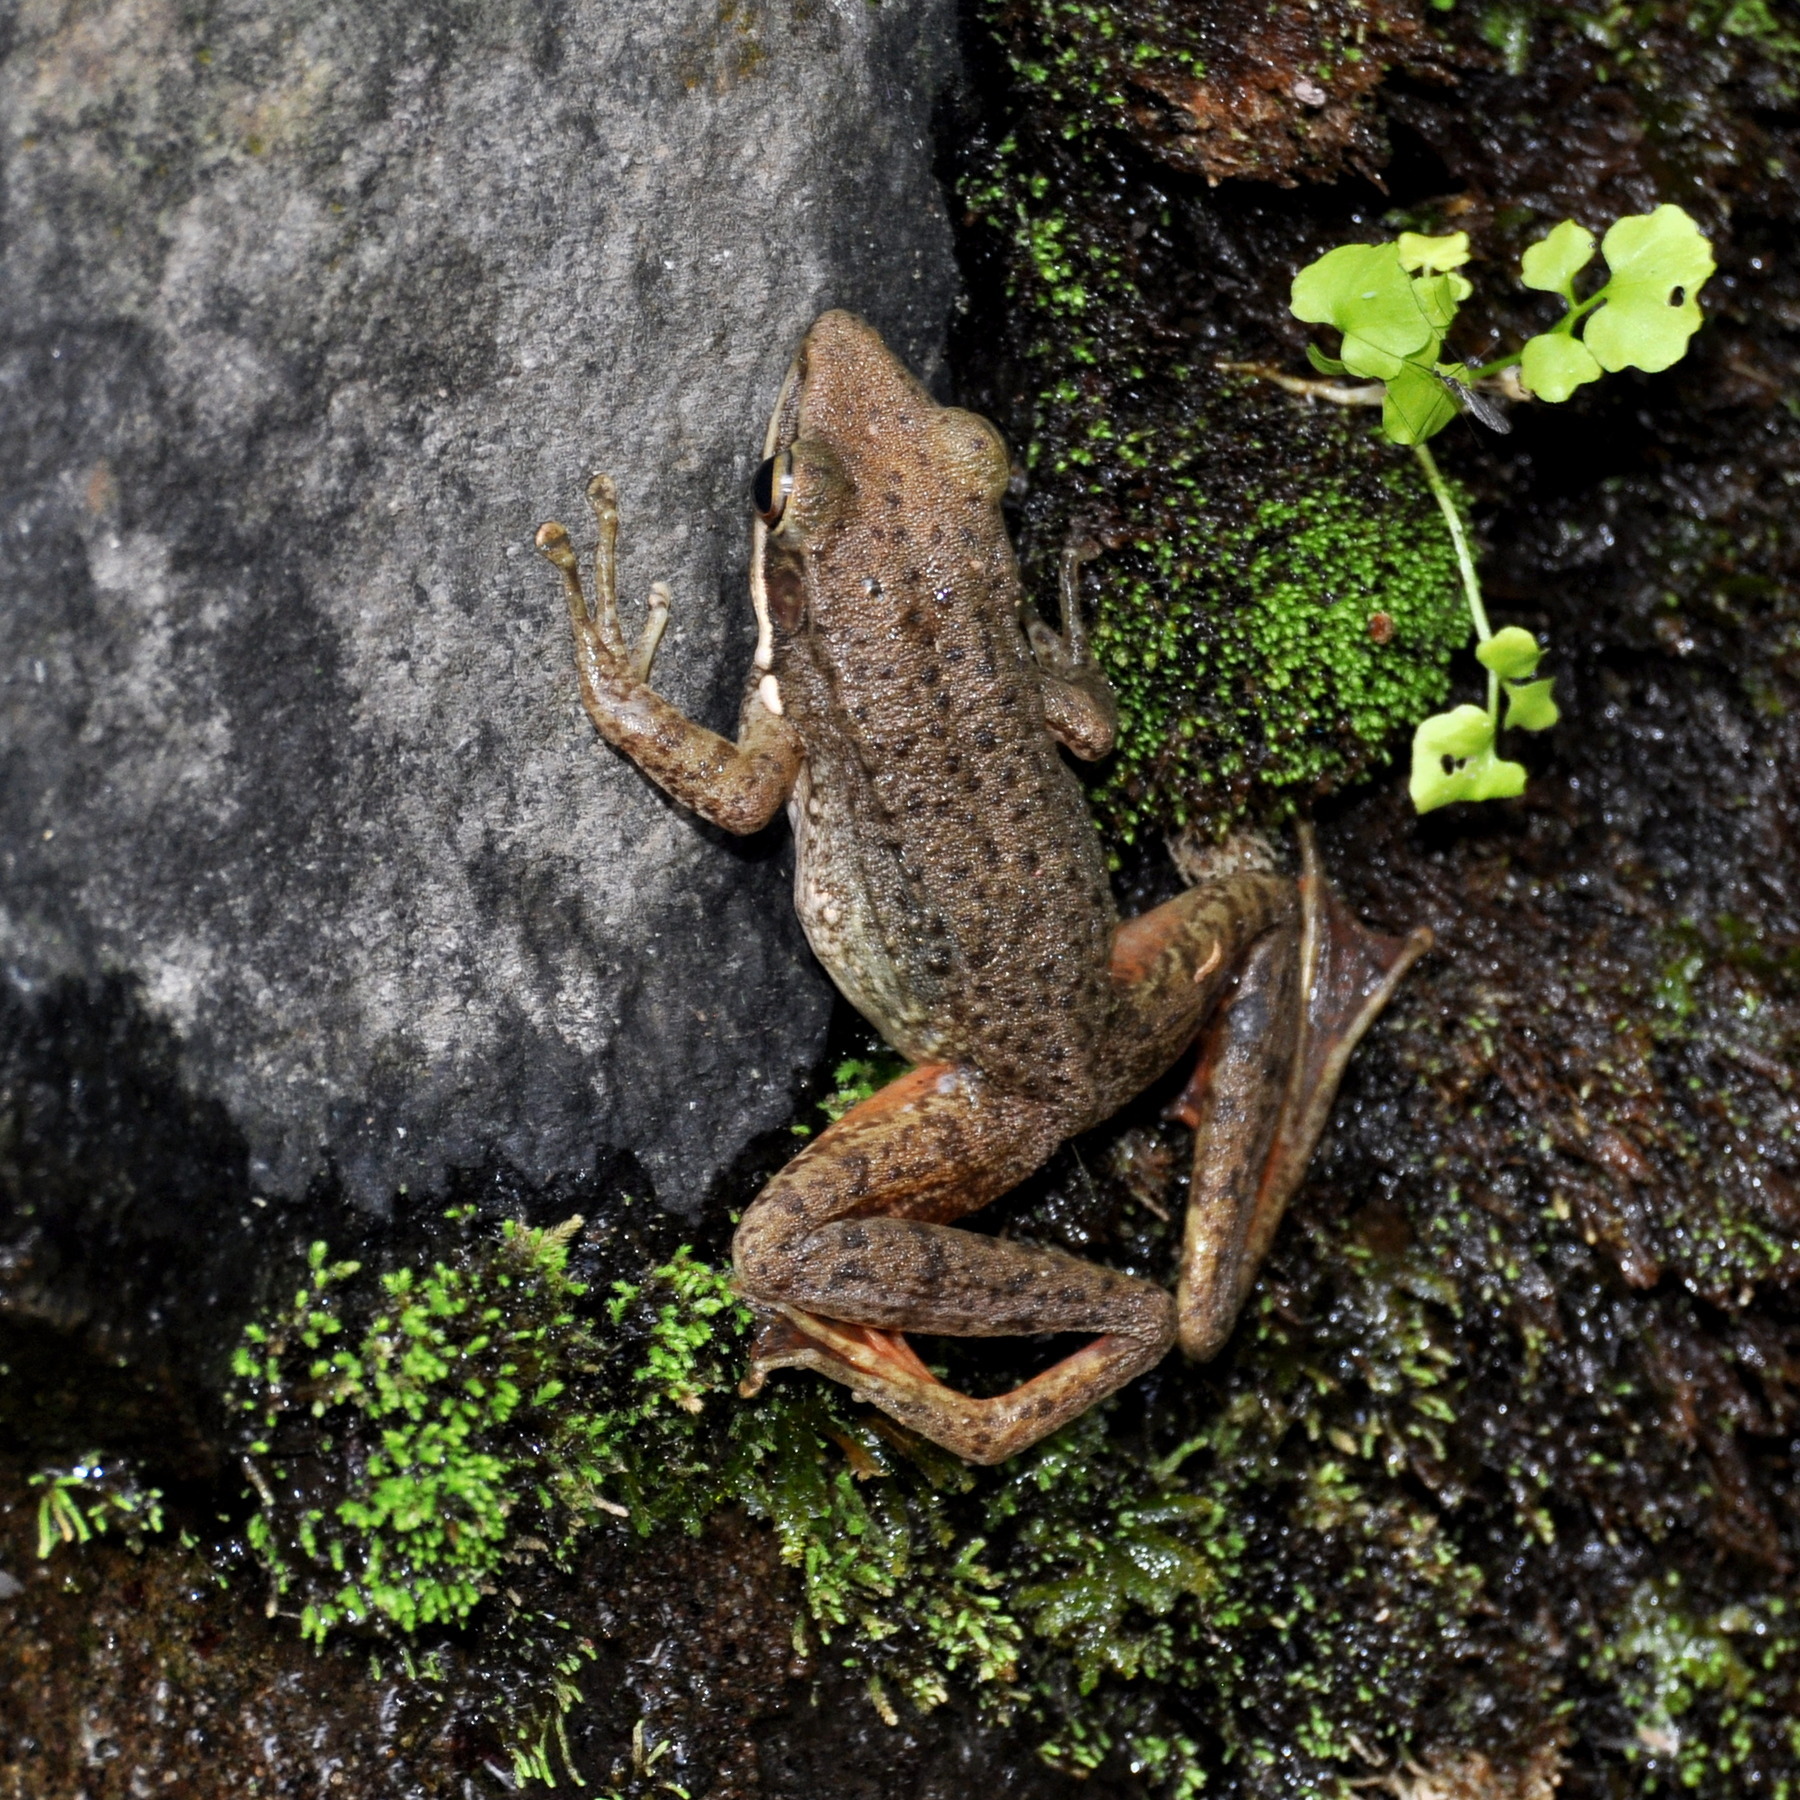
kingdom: Animalia
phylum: Chordata
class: Amphibia
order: Anura
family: Ranidae
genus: Chalcorana
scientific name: Chalcorana chalconota
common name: Schlegel's frog
